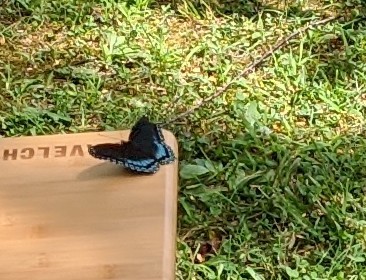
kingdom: Animalia
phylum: Arthropoda
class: Insecta
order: Lepidoptera
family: Nymphalidae
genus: Limenitis
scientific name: Limenitis astyanax
